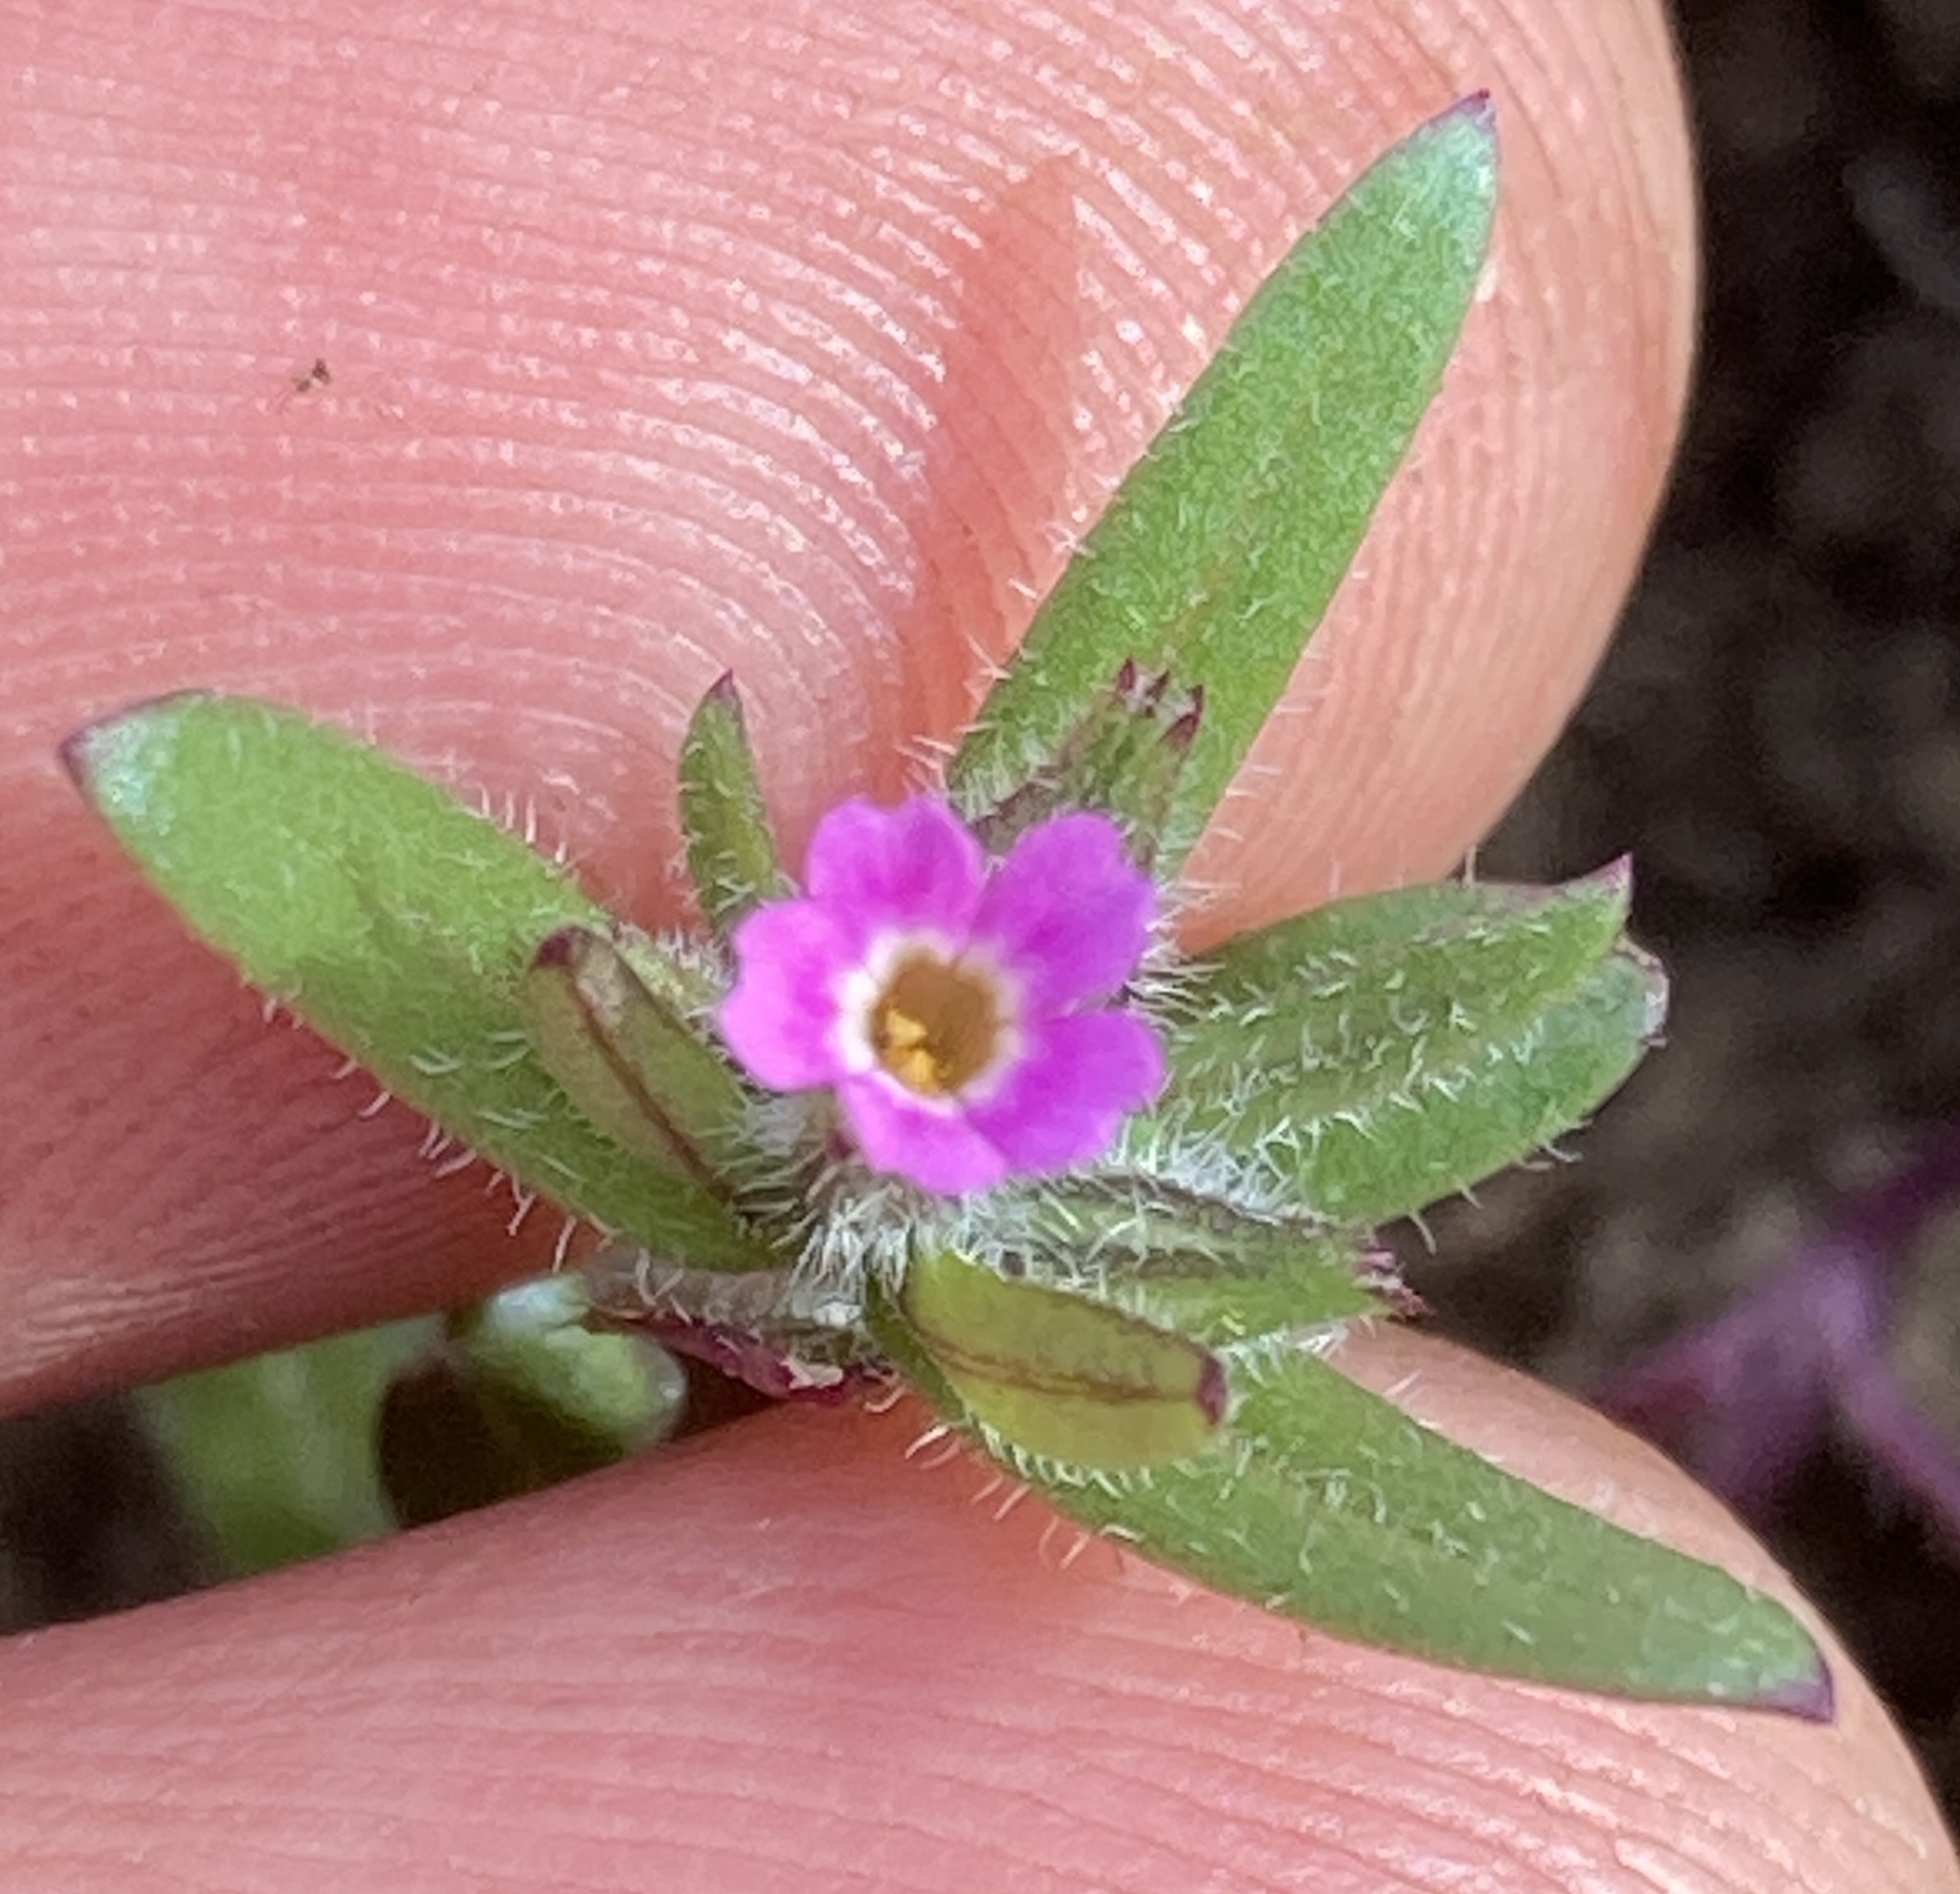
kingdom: Plantae
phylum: Tracheophyta
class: Magnoliopsida
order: Ericales
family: Polemoniaceae
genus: Phlox
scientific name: Phlox gracilis
